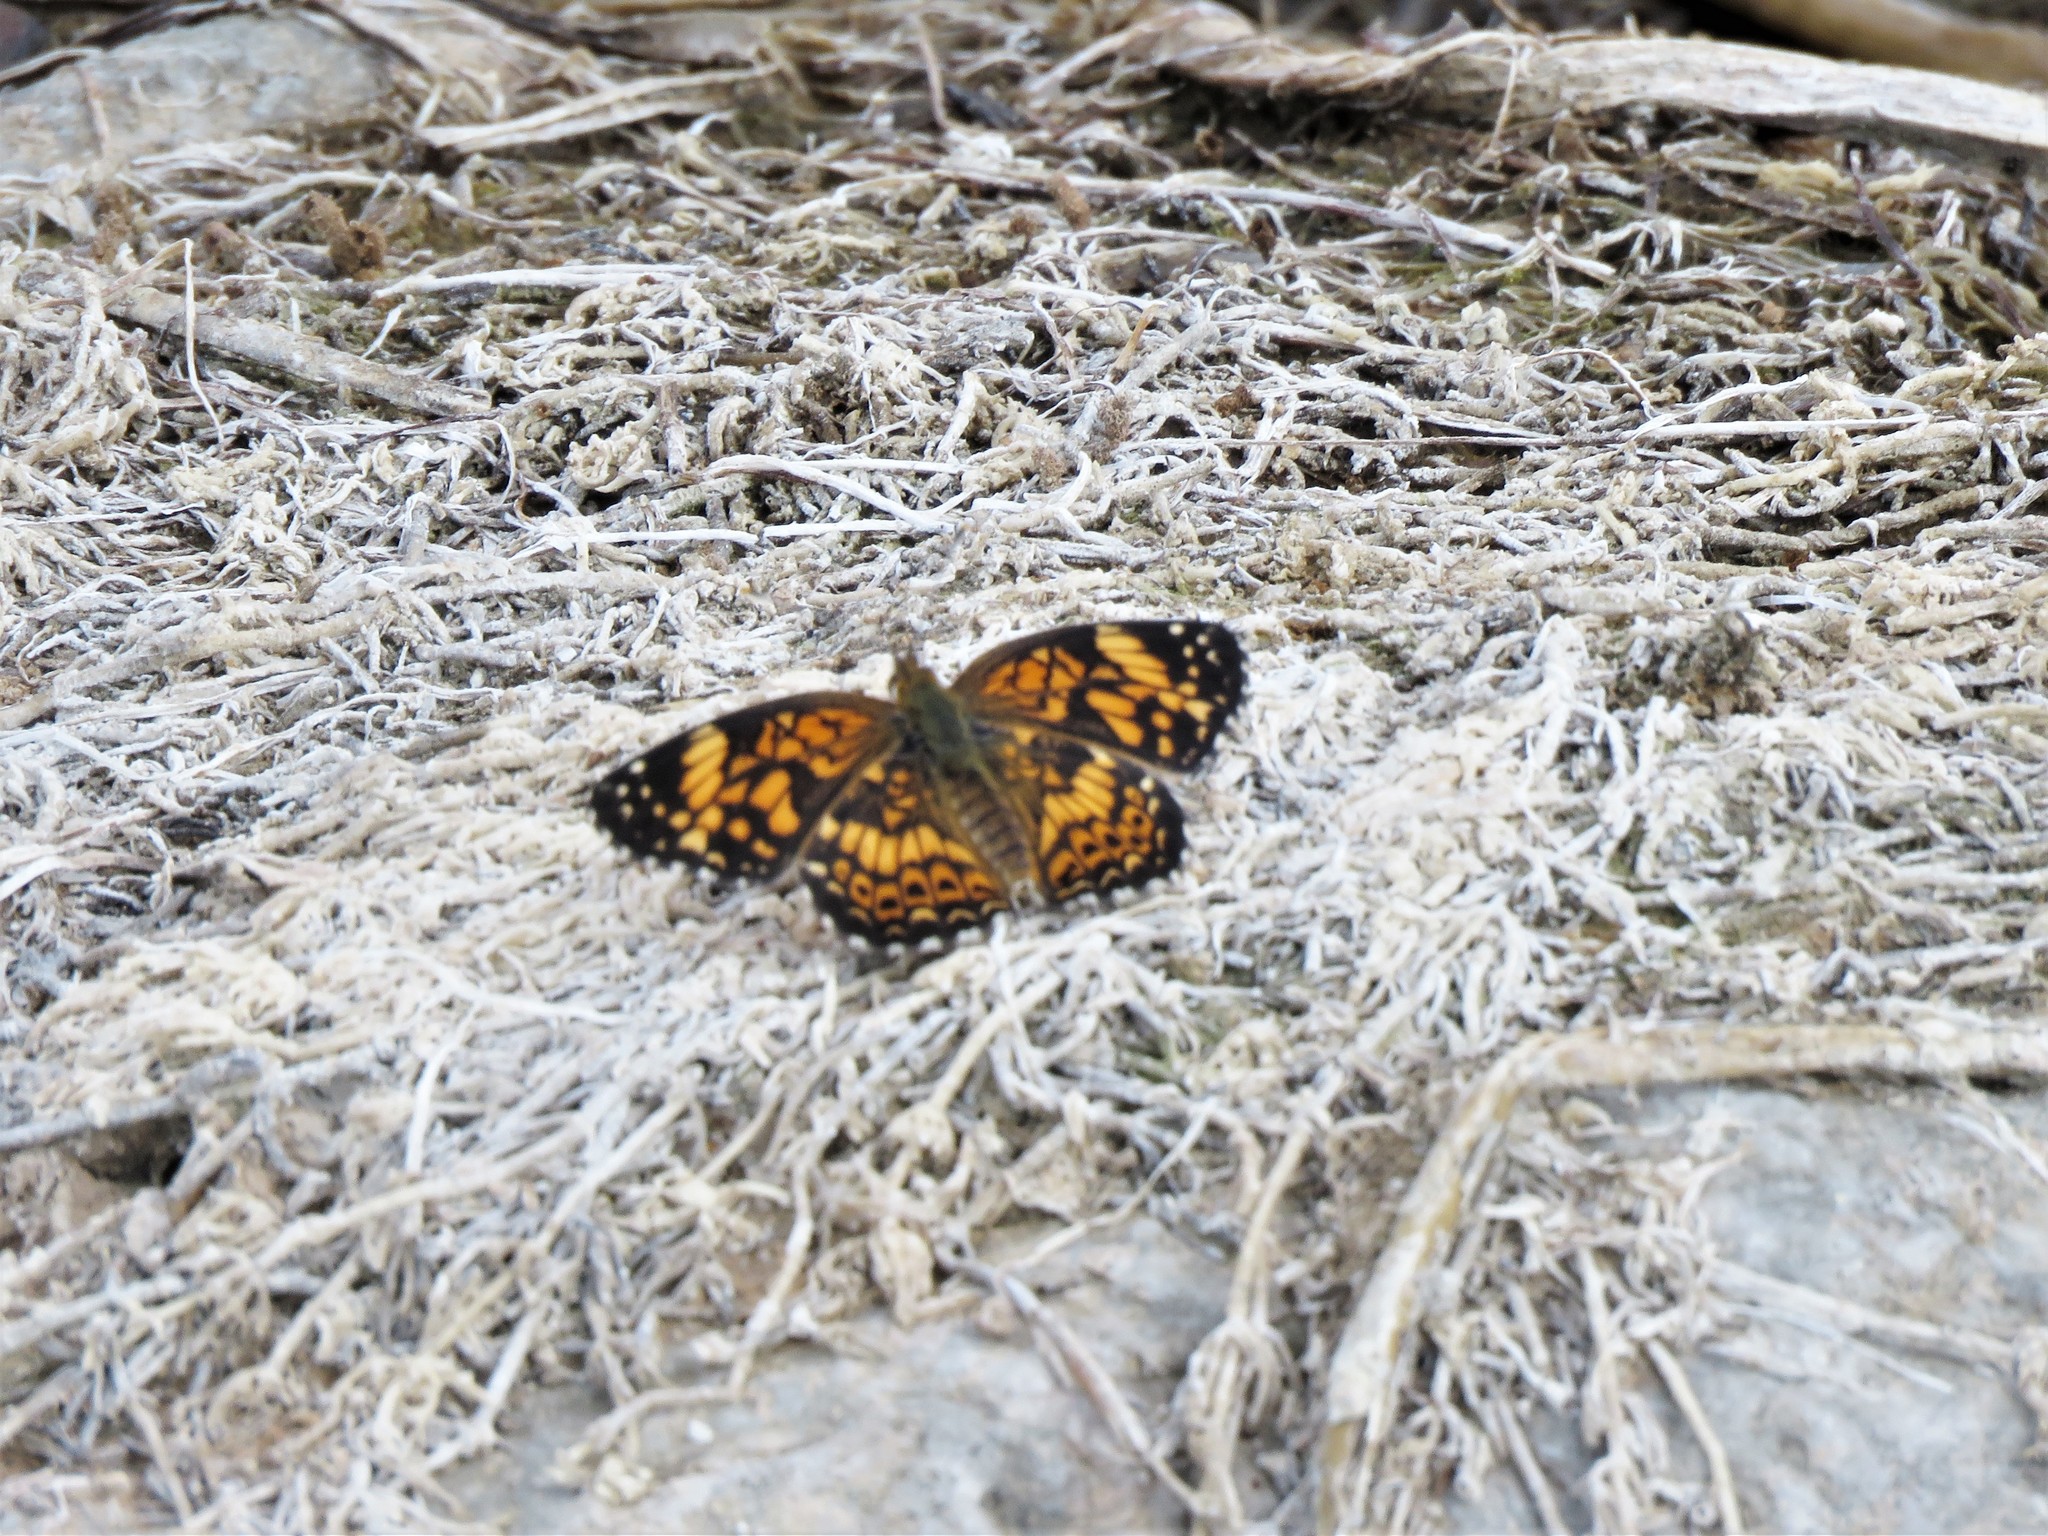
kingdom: Animalia
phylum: Arthropoda
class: Insecta
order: Lepidoptera
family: Nymphalidae
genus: Chlosyne
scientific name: Chlosyne gorgone
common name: Gorgone checkerspot
